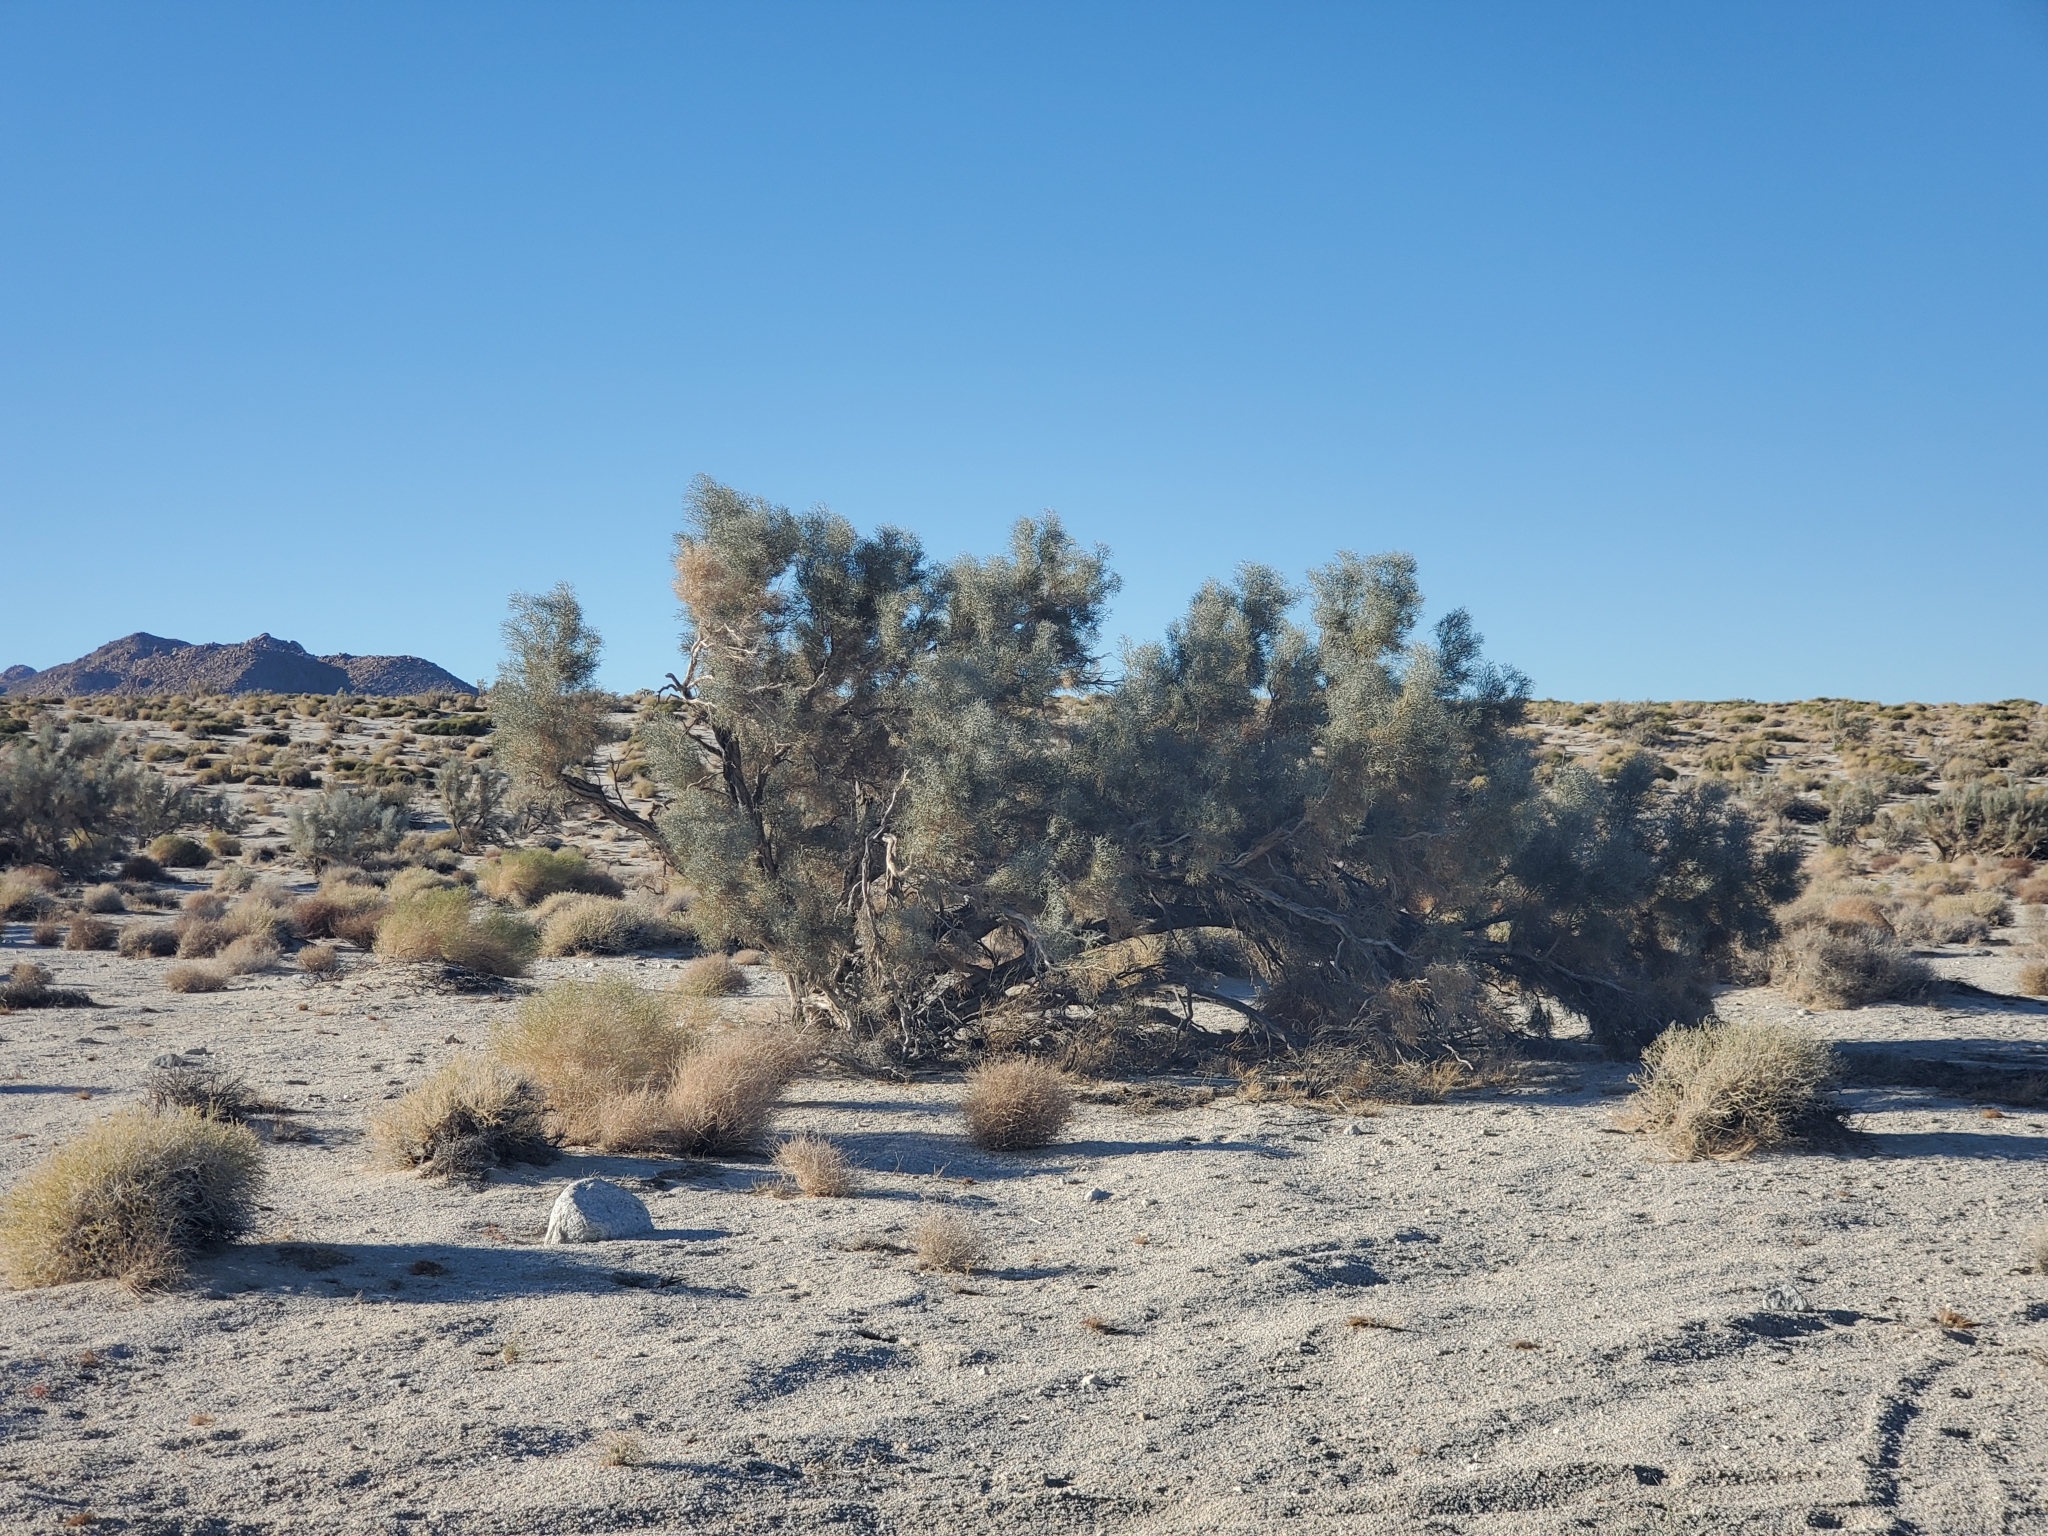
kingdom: Plantae
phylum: Tracheophyta
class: Magnoliopsida
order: Fabales
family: Fabaceae
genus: Psorothamnus
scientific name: Psorothamnus spinosus
